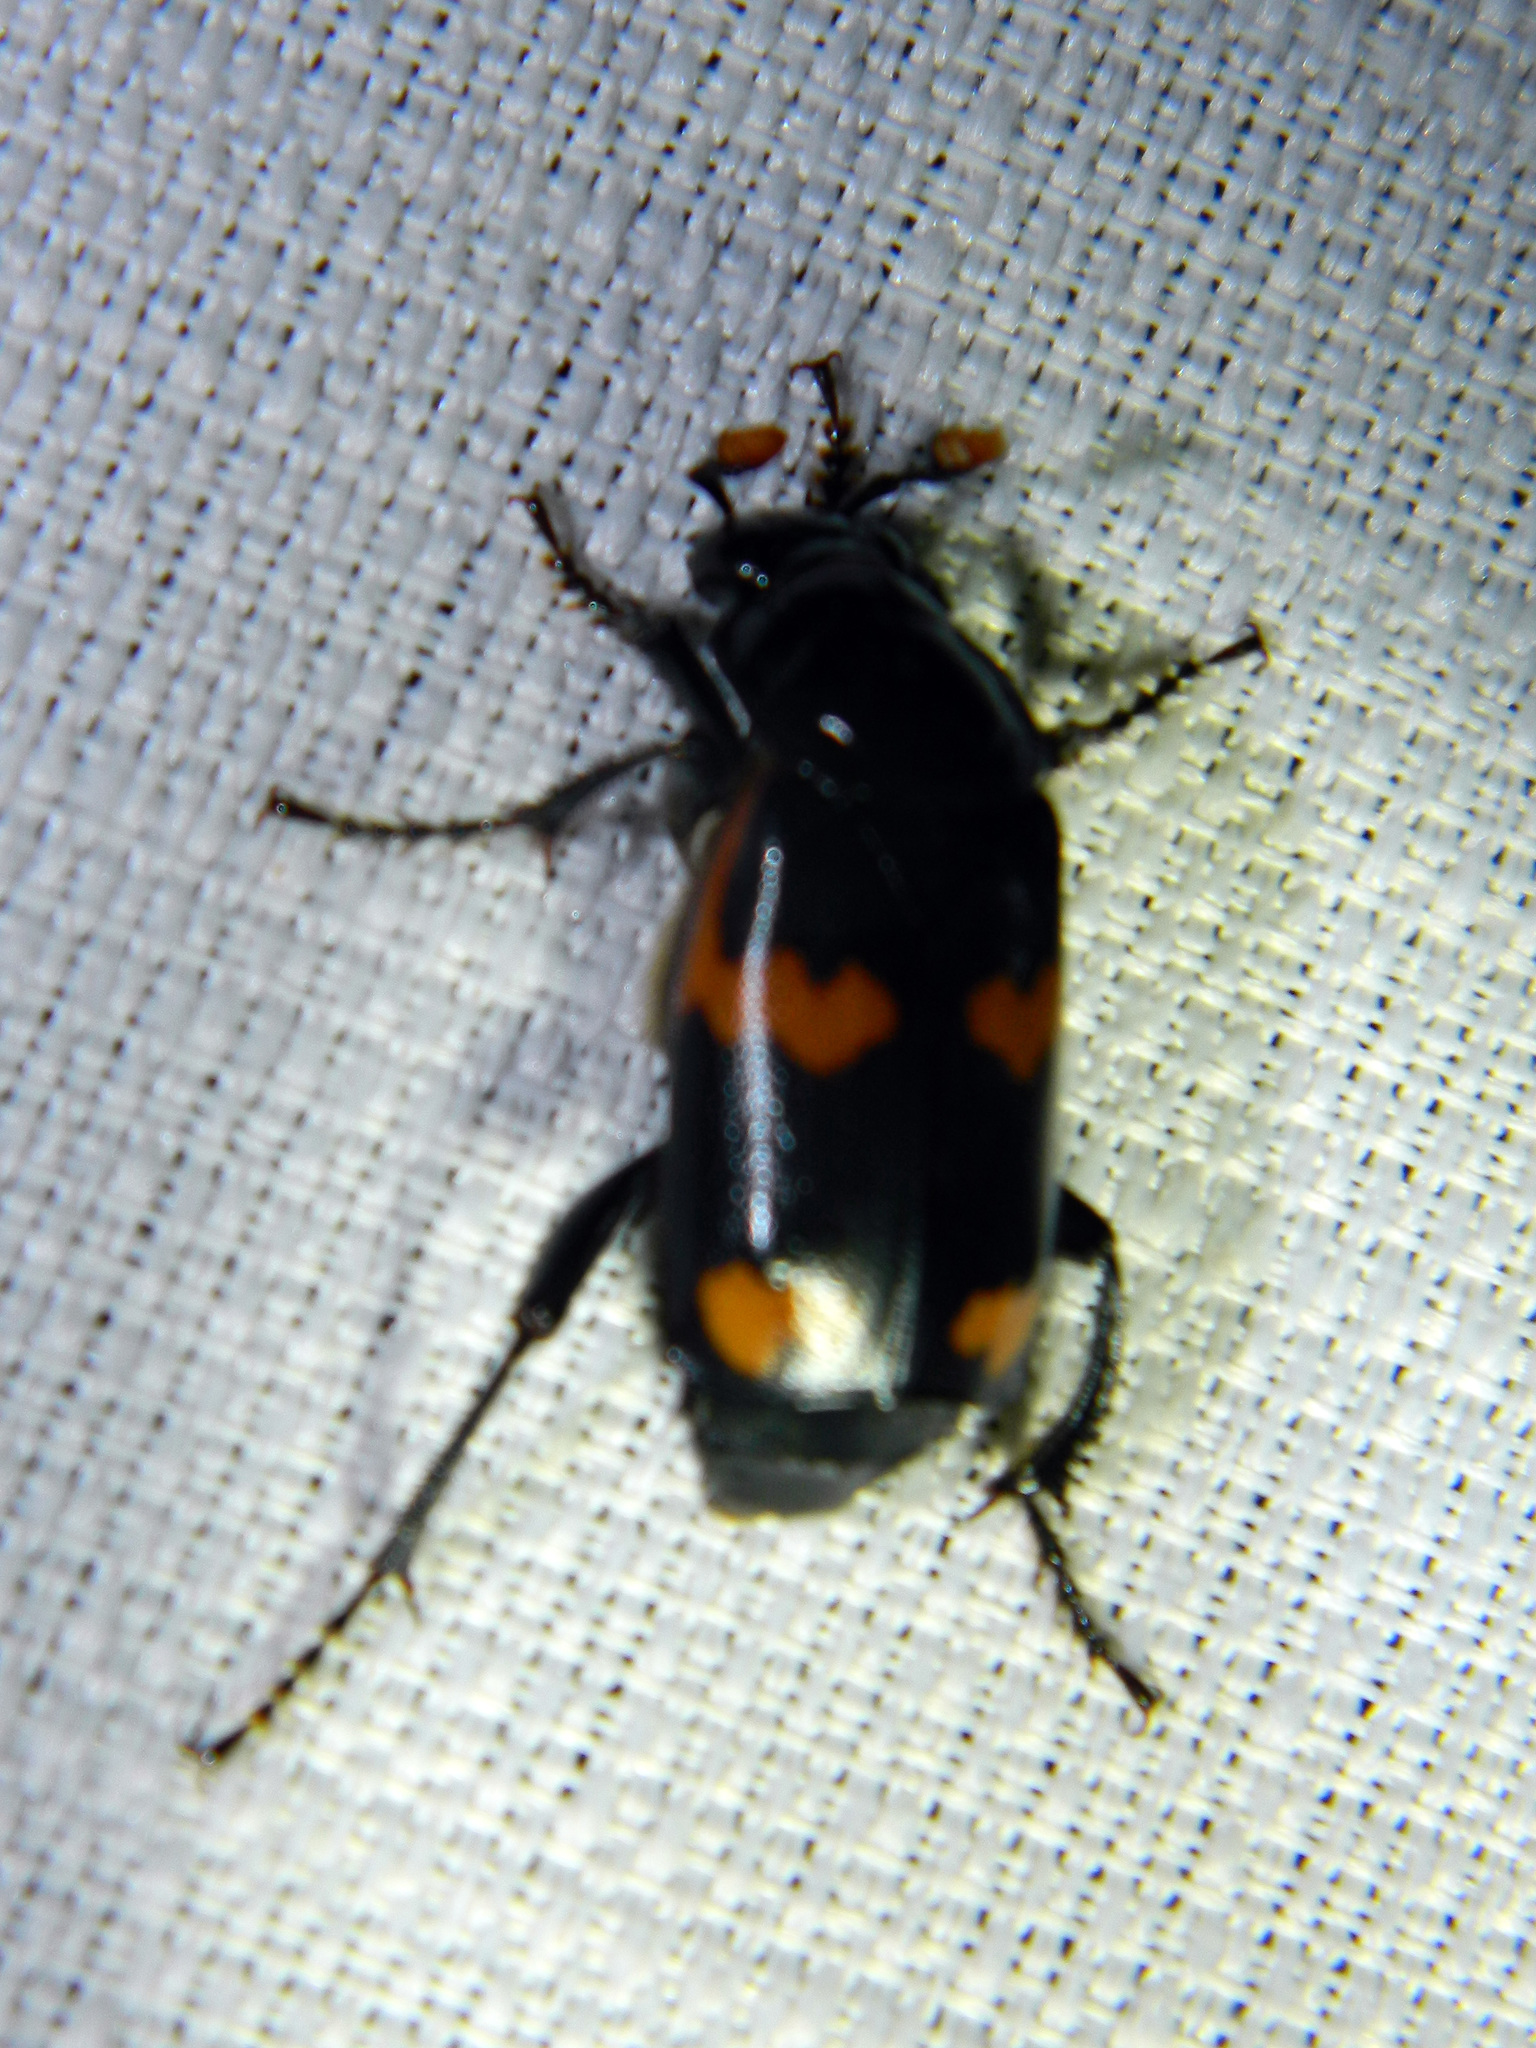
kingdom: Animalia
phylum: Arthropoda
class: Insecta
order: Coleoptera
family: Staphylinidae
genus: Nicrophorus
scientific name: Nicrophorus sayi
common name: Say's burying beetle
